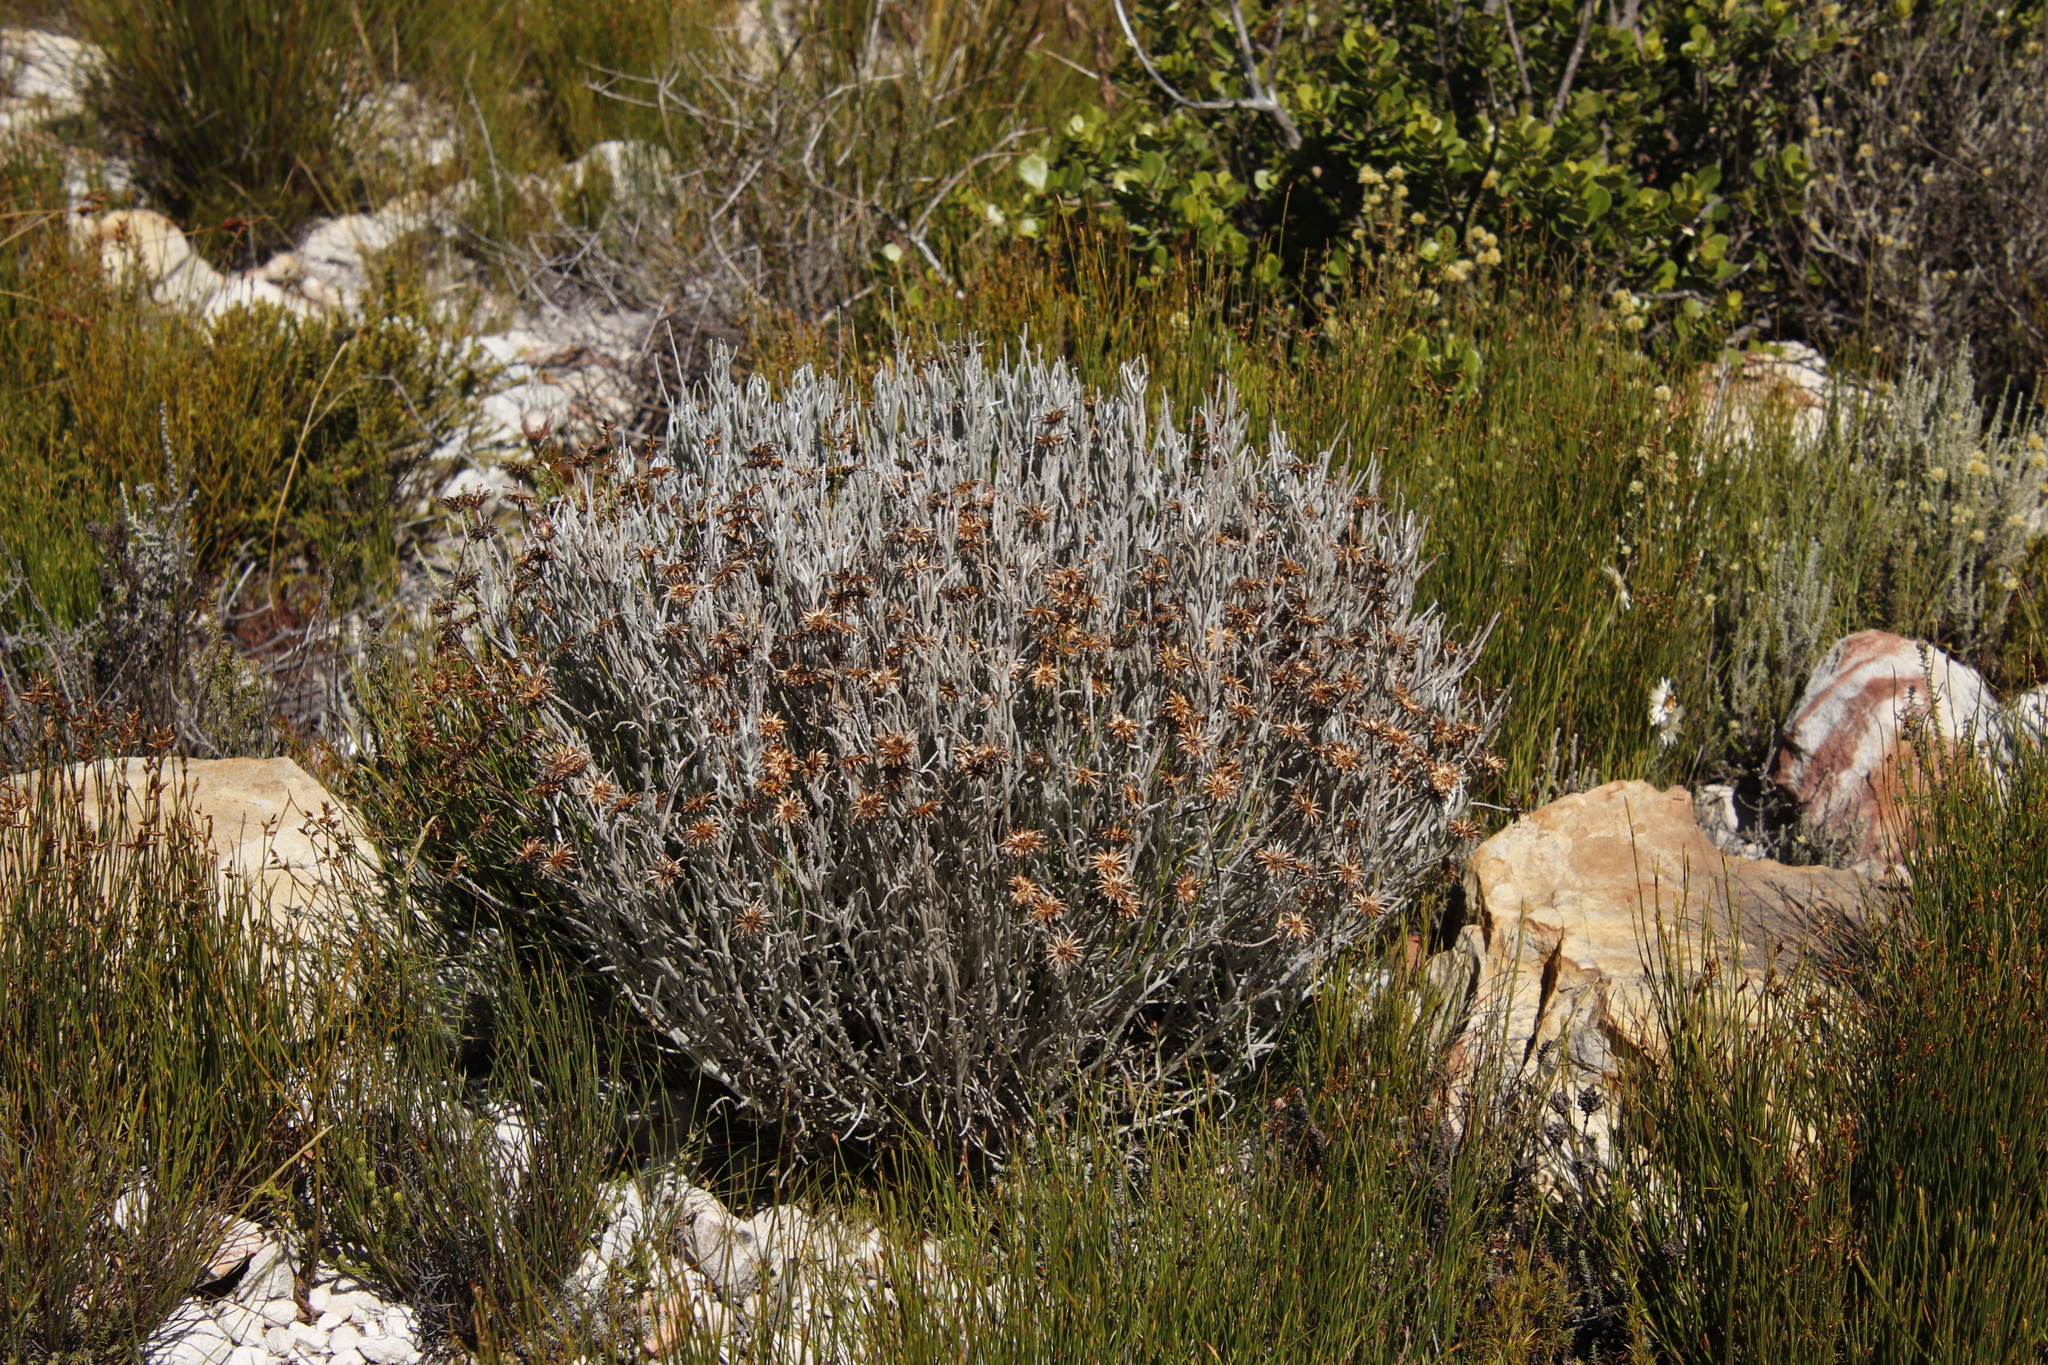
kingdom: Plantae
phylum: Tracheophyta
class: Magnoliopsida
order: Asterales
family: Asteraceae
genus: Syncarpha
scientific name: Syncarpha gnaphaloides
